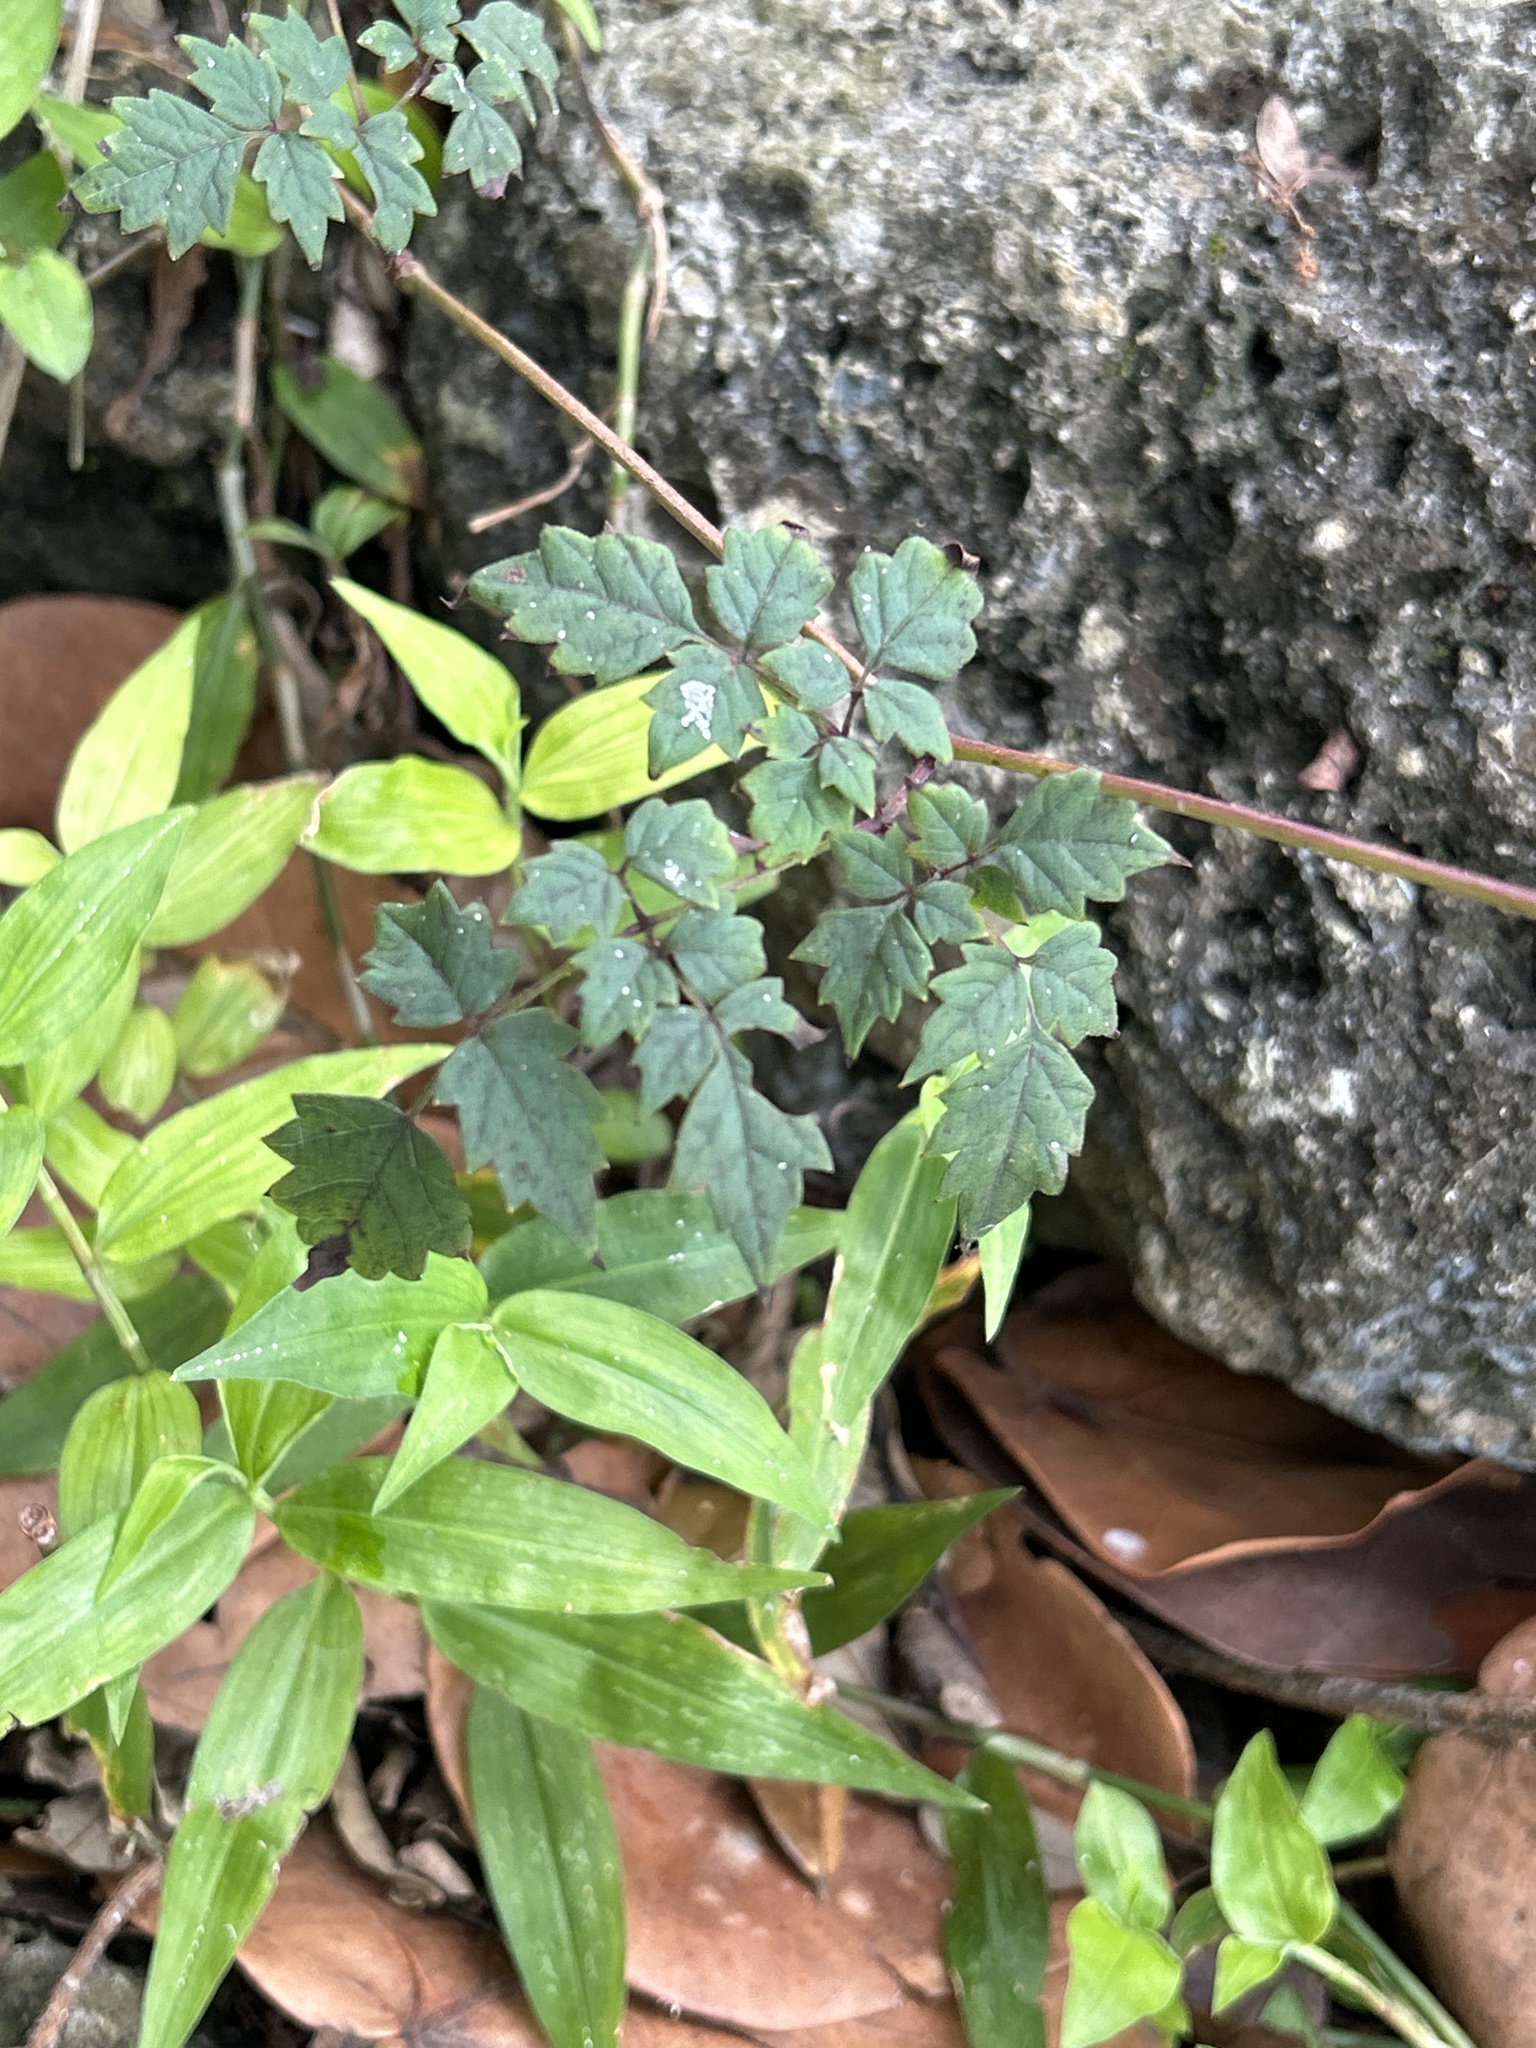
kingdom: Plantae
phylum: Tracheophyta
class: Magnoliopsida
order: Vitales
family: Vitaceae
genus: Nekemias
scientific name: Nekemias arborea
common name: Peppervine
